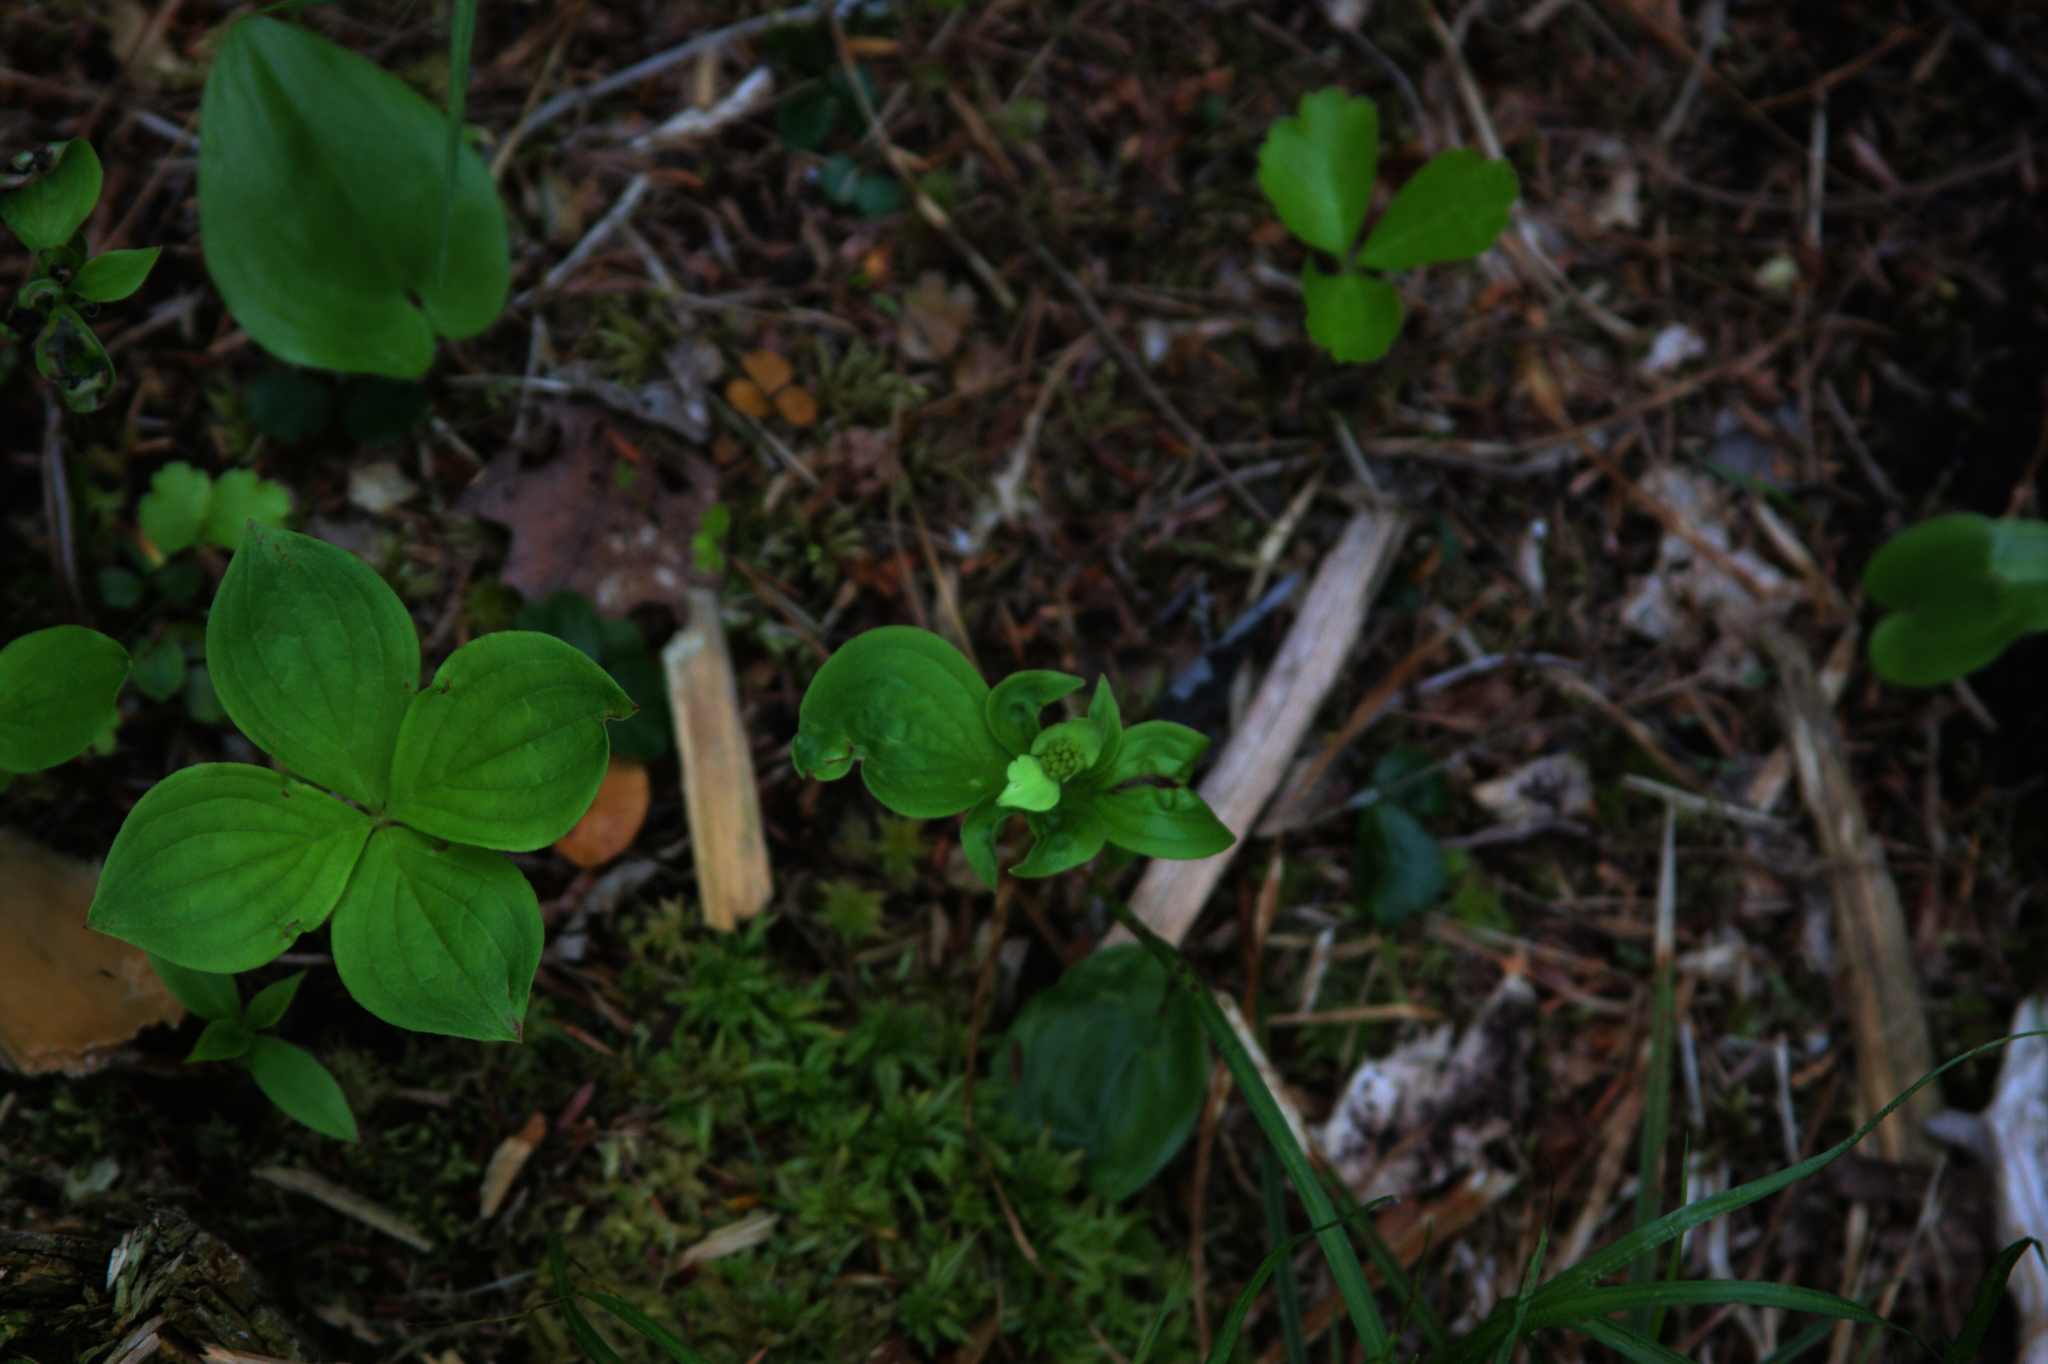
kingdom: Plantae
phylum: Tracheophyta
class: Magnoliopsida
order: Cornales
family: Cornaceae
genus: Cornus
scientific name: Cornus canadensis
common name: Creeping dogwood
